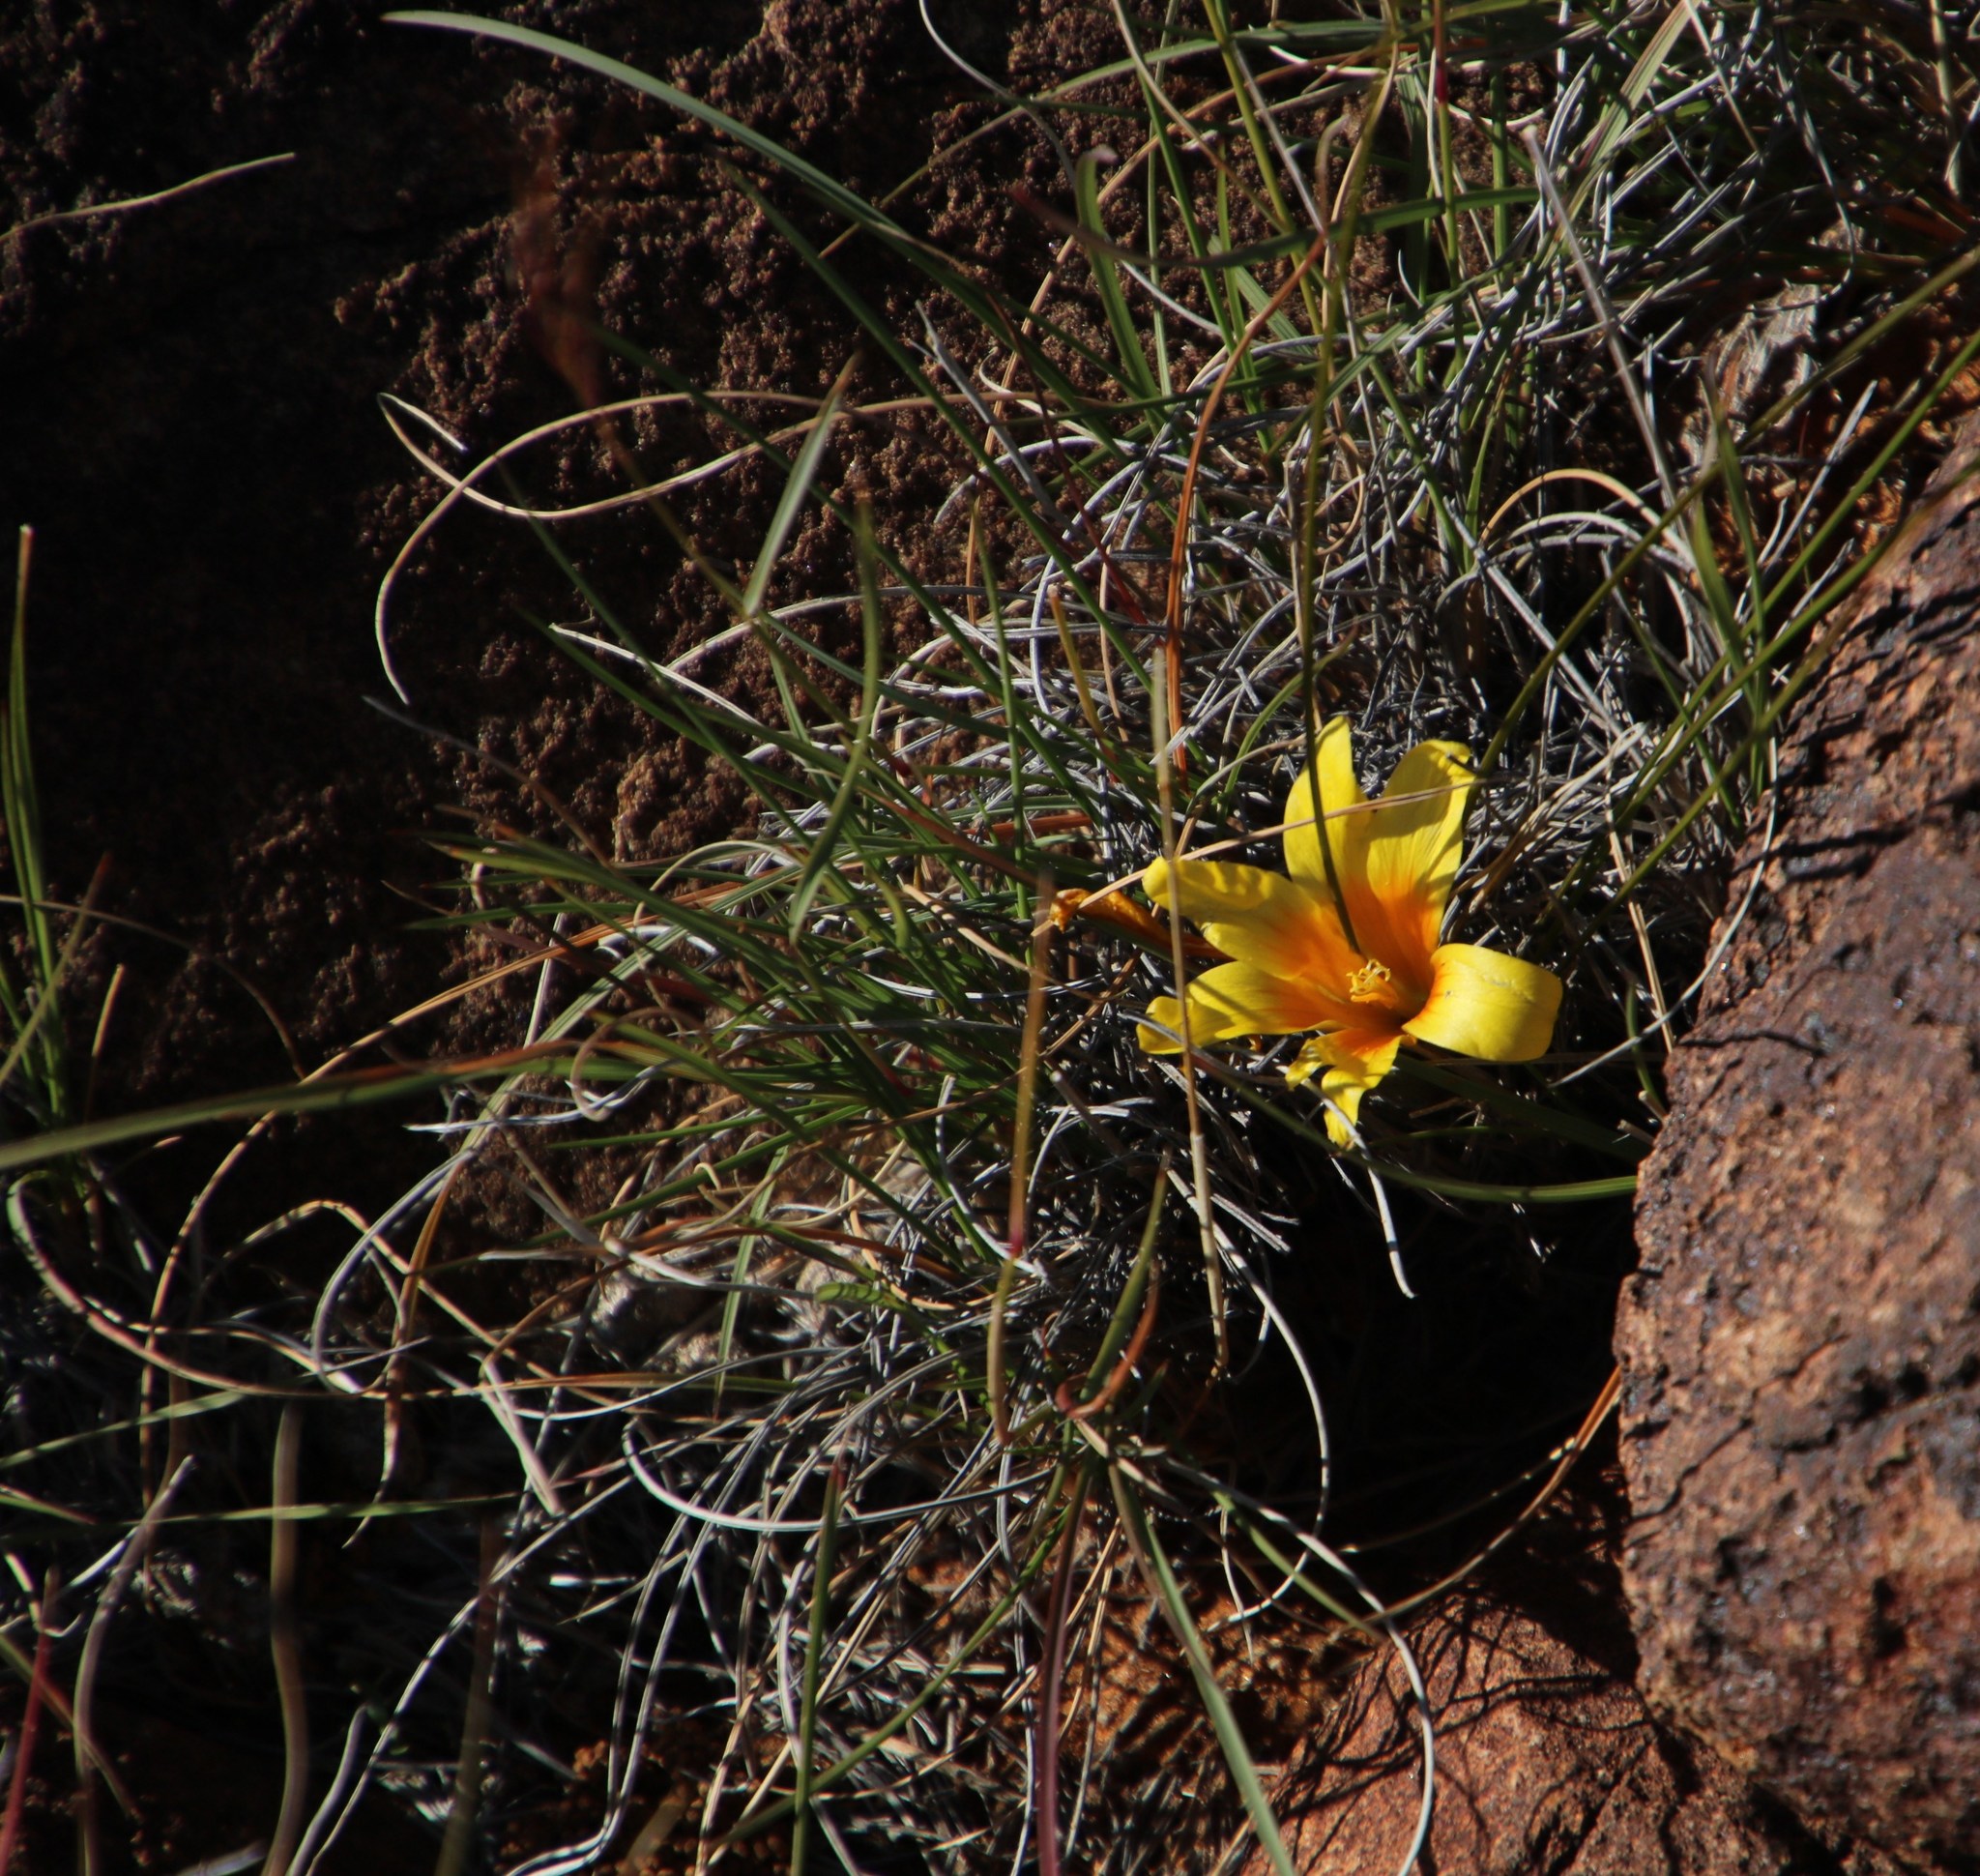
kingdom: Plantae
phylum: Tracheophyta
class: Liliopsida
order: Asparagales
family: Iridaceae
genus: Romulea
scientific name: Romulea tortuosa
